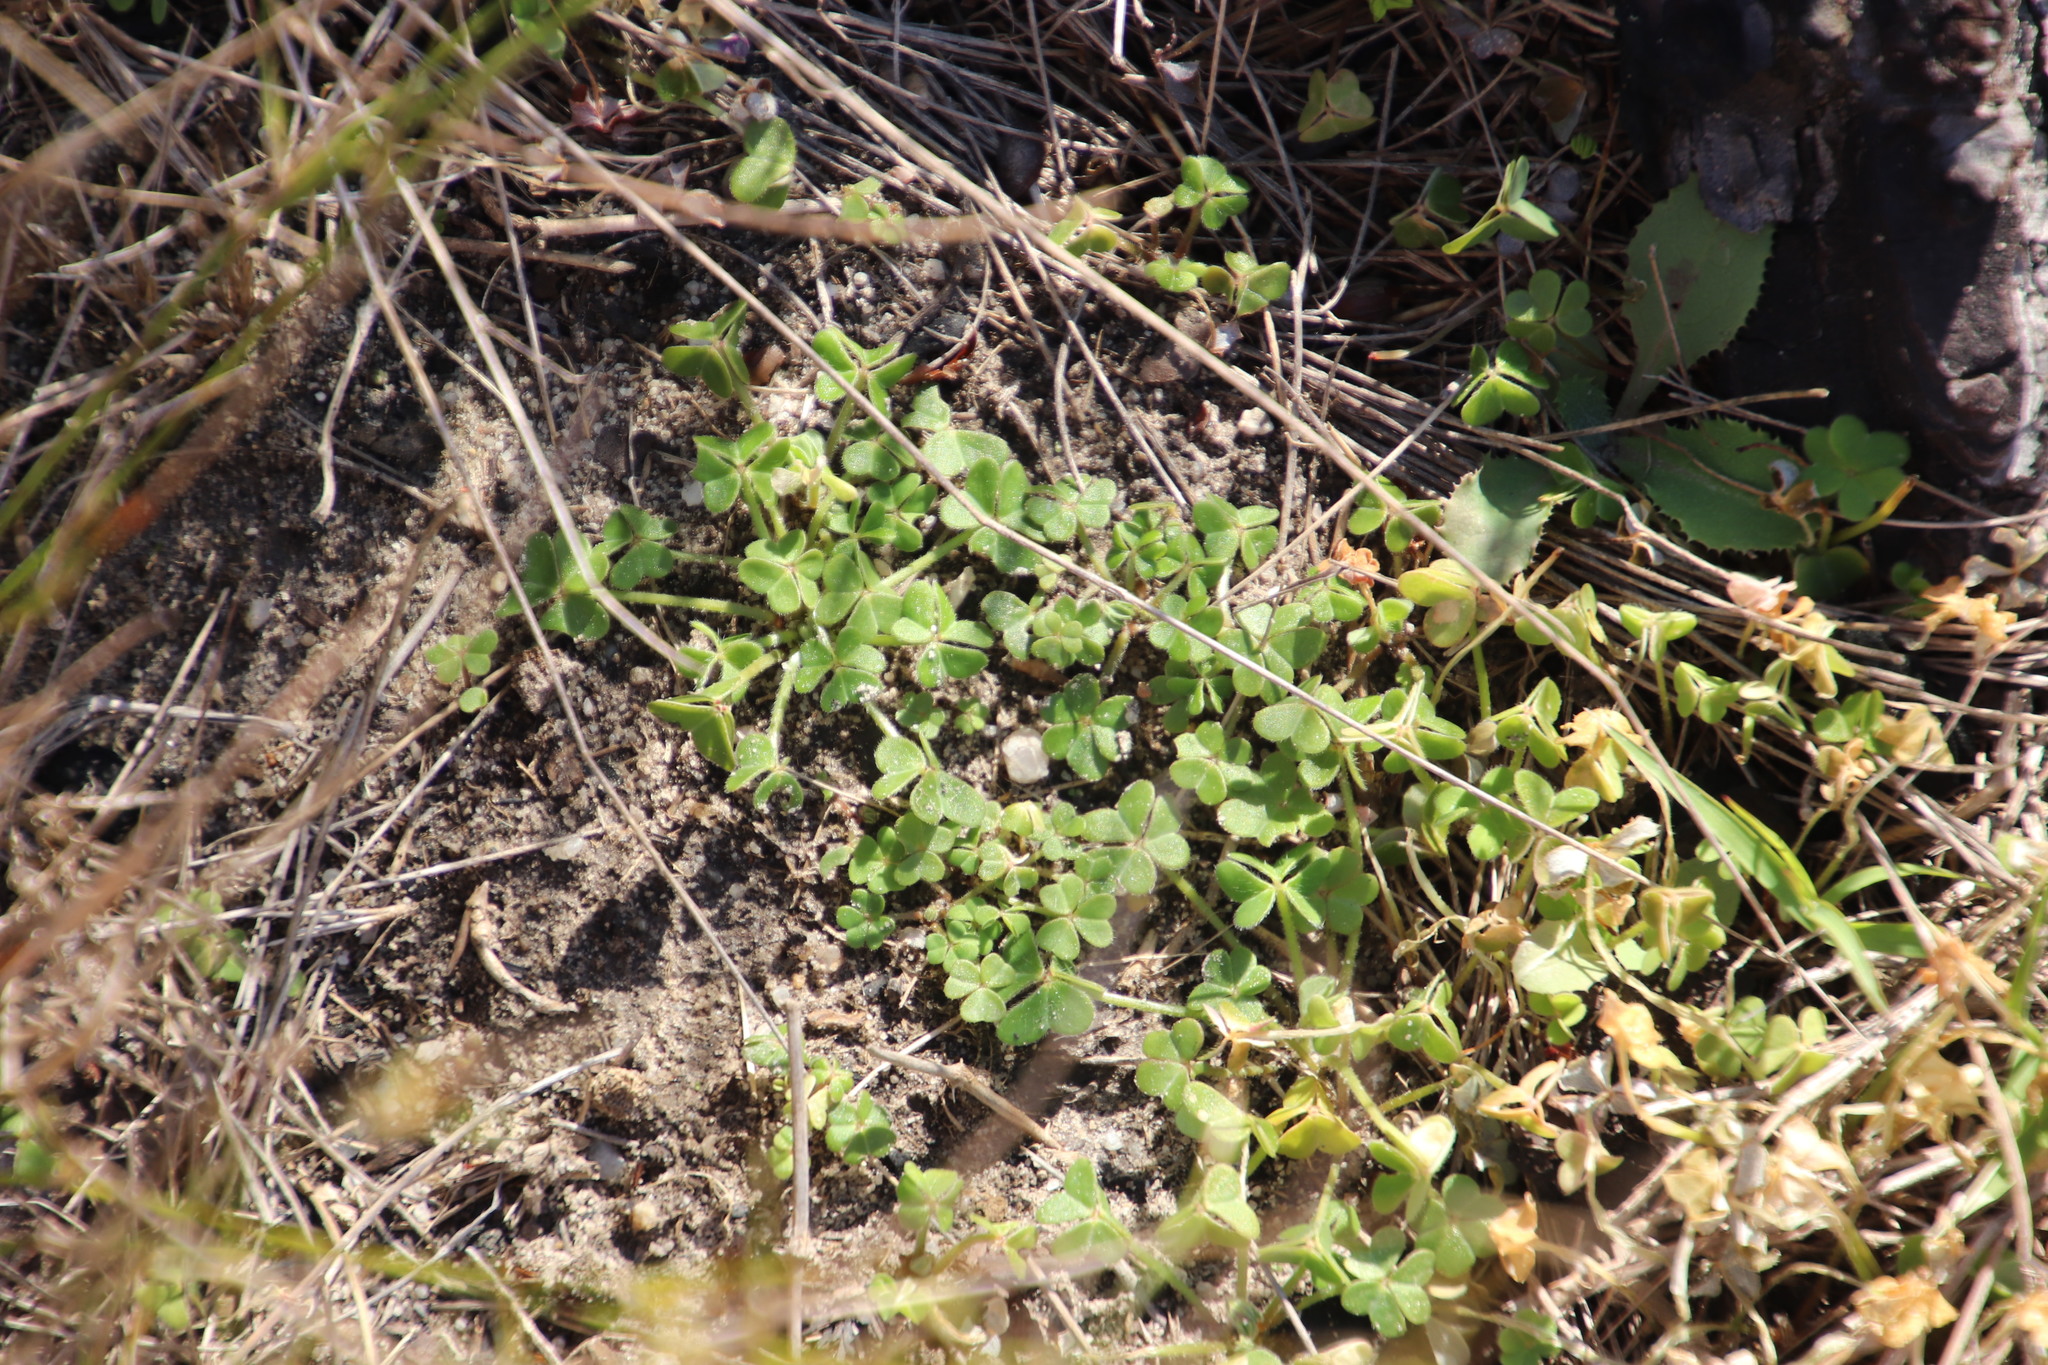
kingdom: Plantae
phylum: Tracheophyta
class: Magnoliopsida
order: Oxalidales
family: Oxalidaceae
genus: Oxalis
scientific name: Oxalis pes-caprae
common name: Bermuda-buttercup
